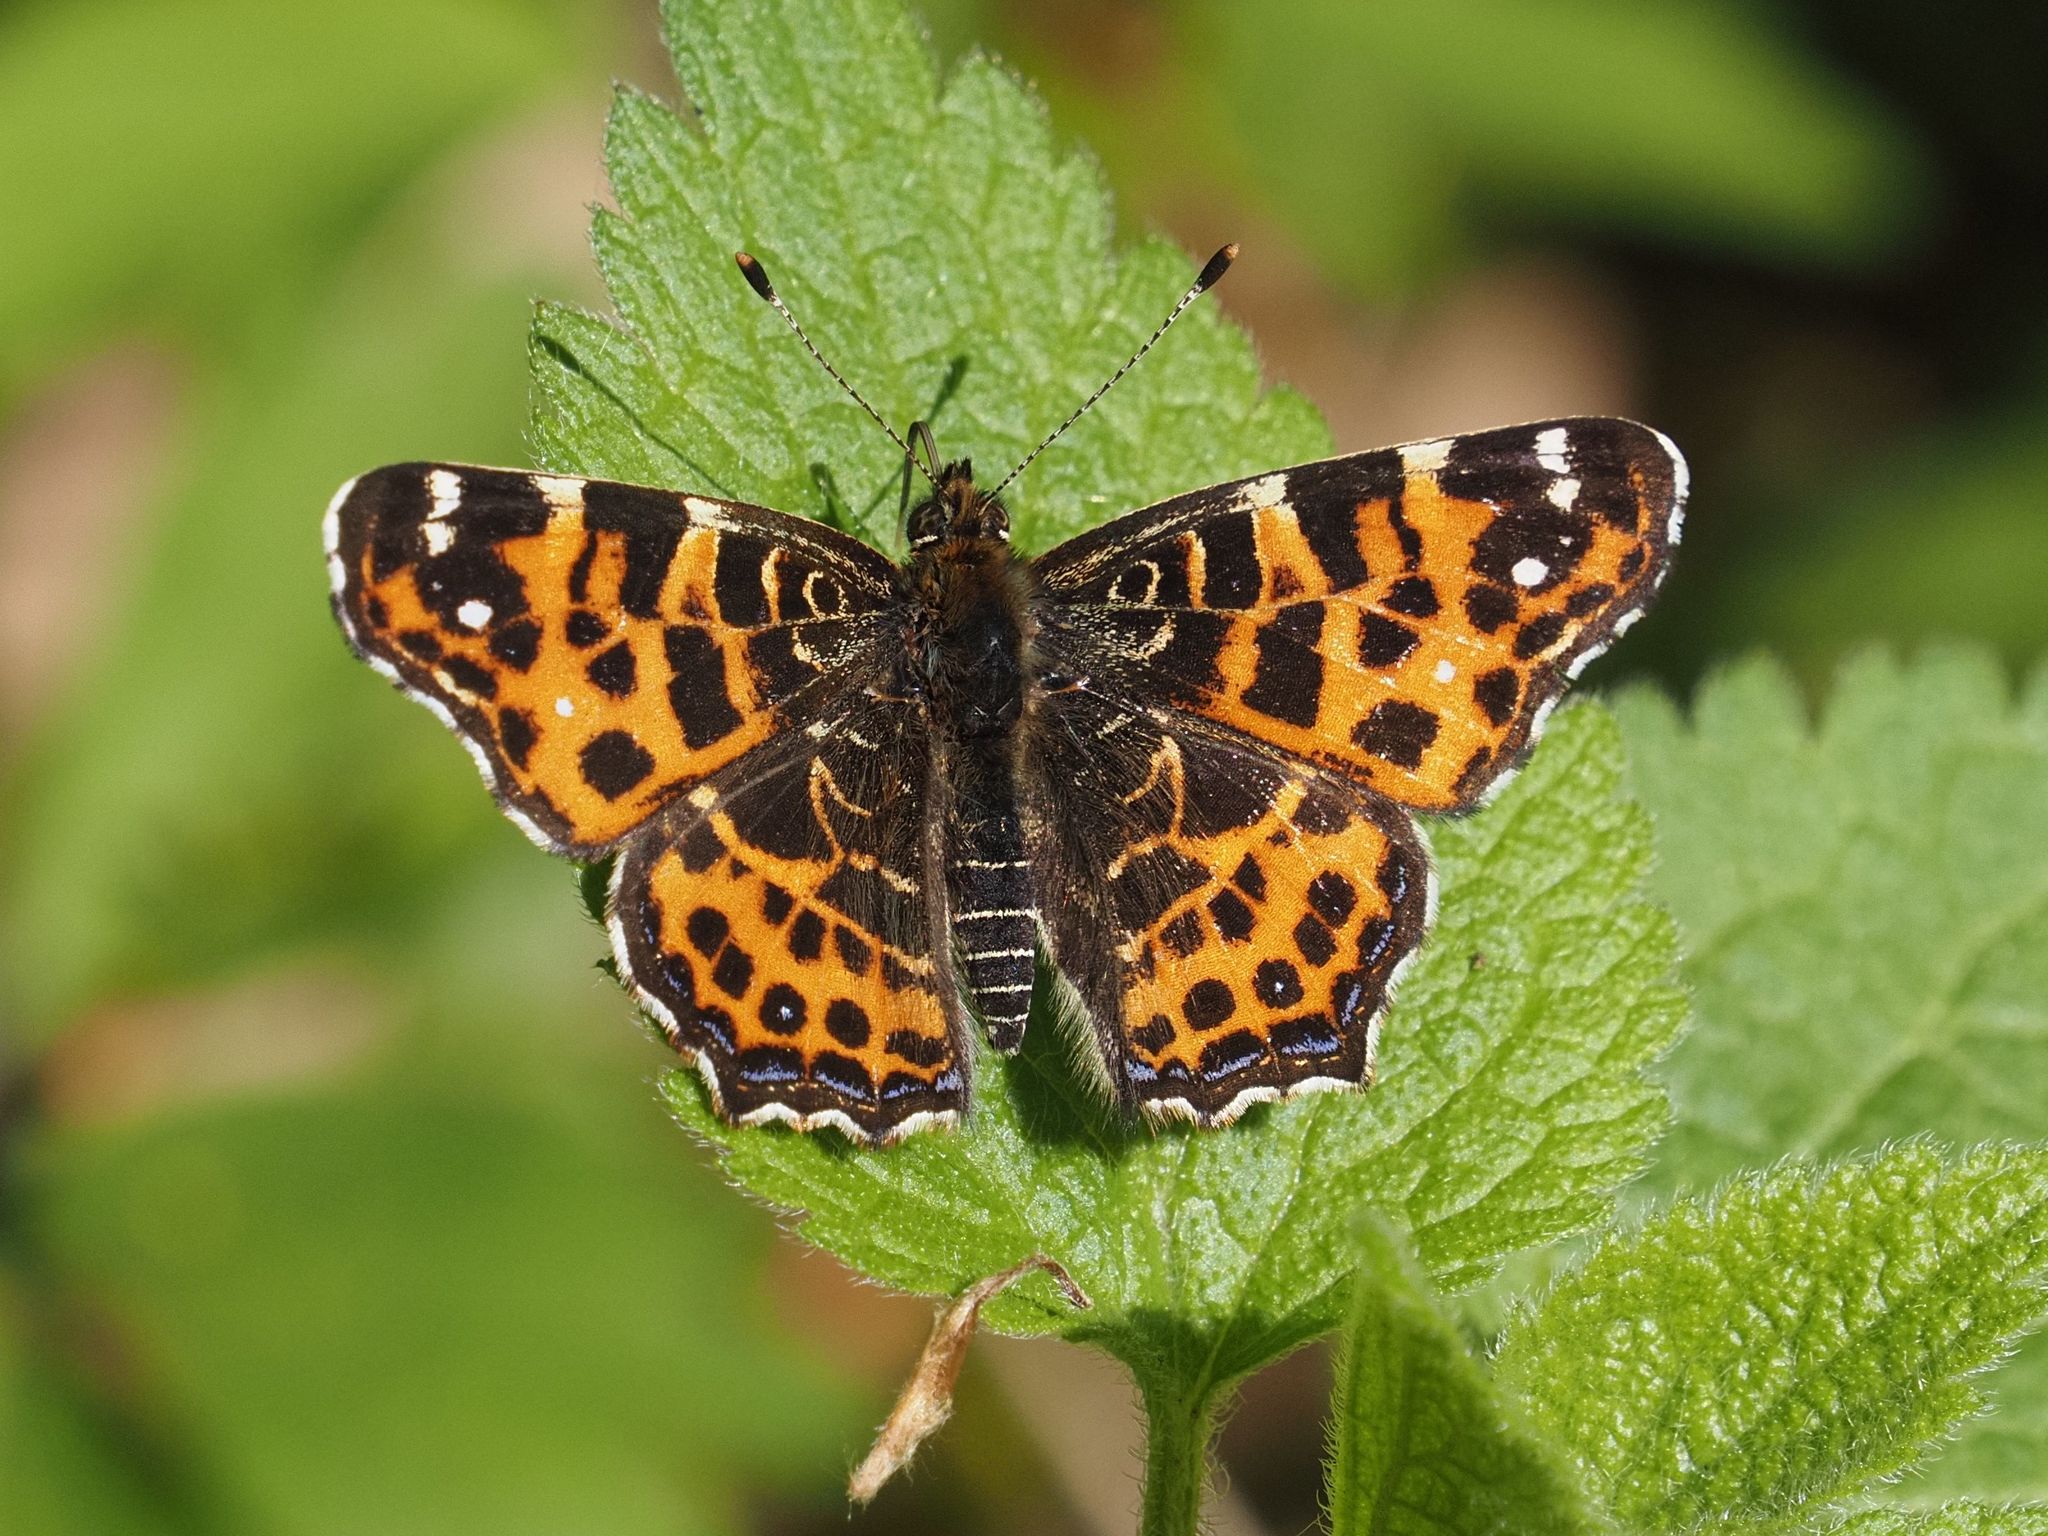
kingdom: Animalia
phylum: Arthropoda
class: Insecta
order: Lepidoptera
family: Nymphalidae
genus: Araschnia
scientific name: Araschnia levana
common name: Map butterfly
